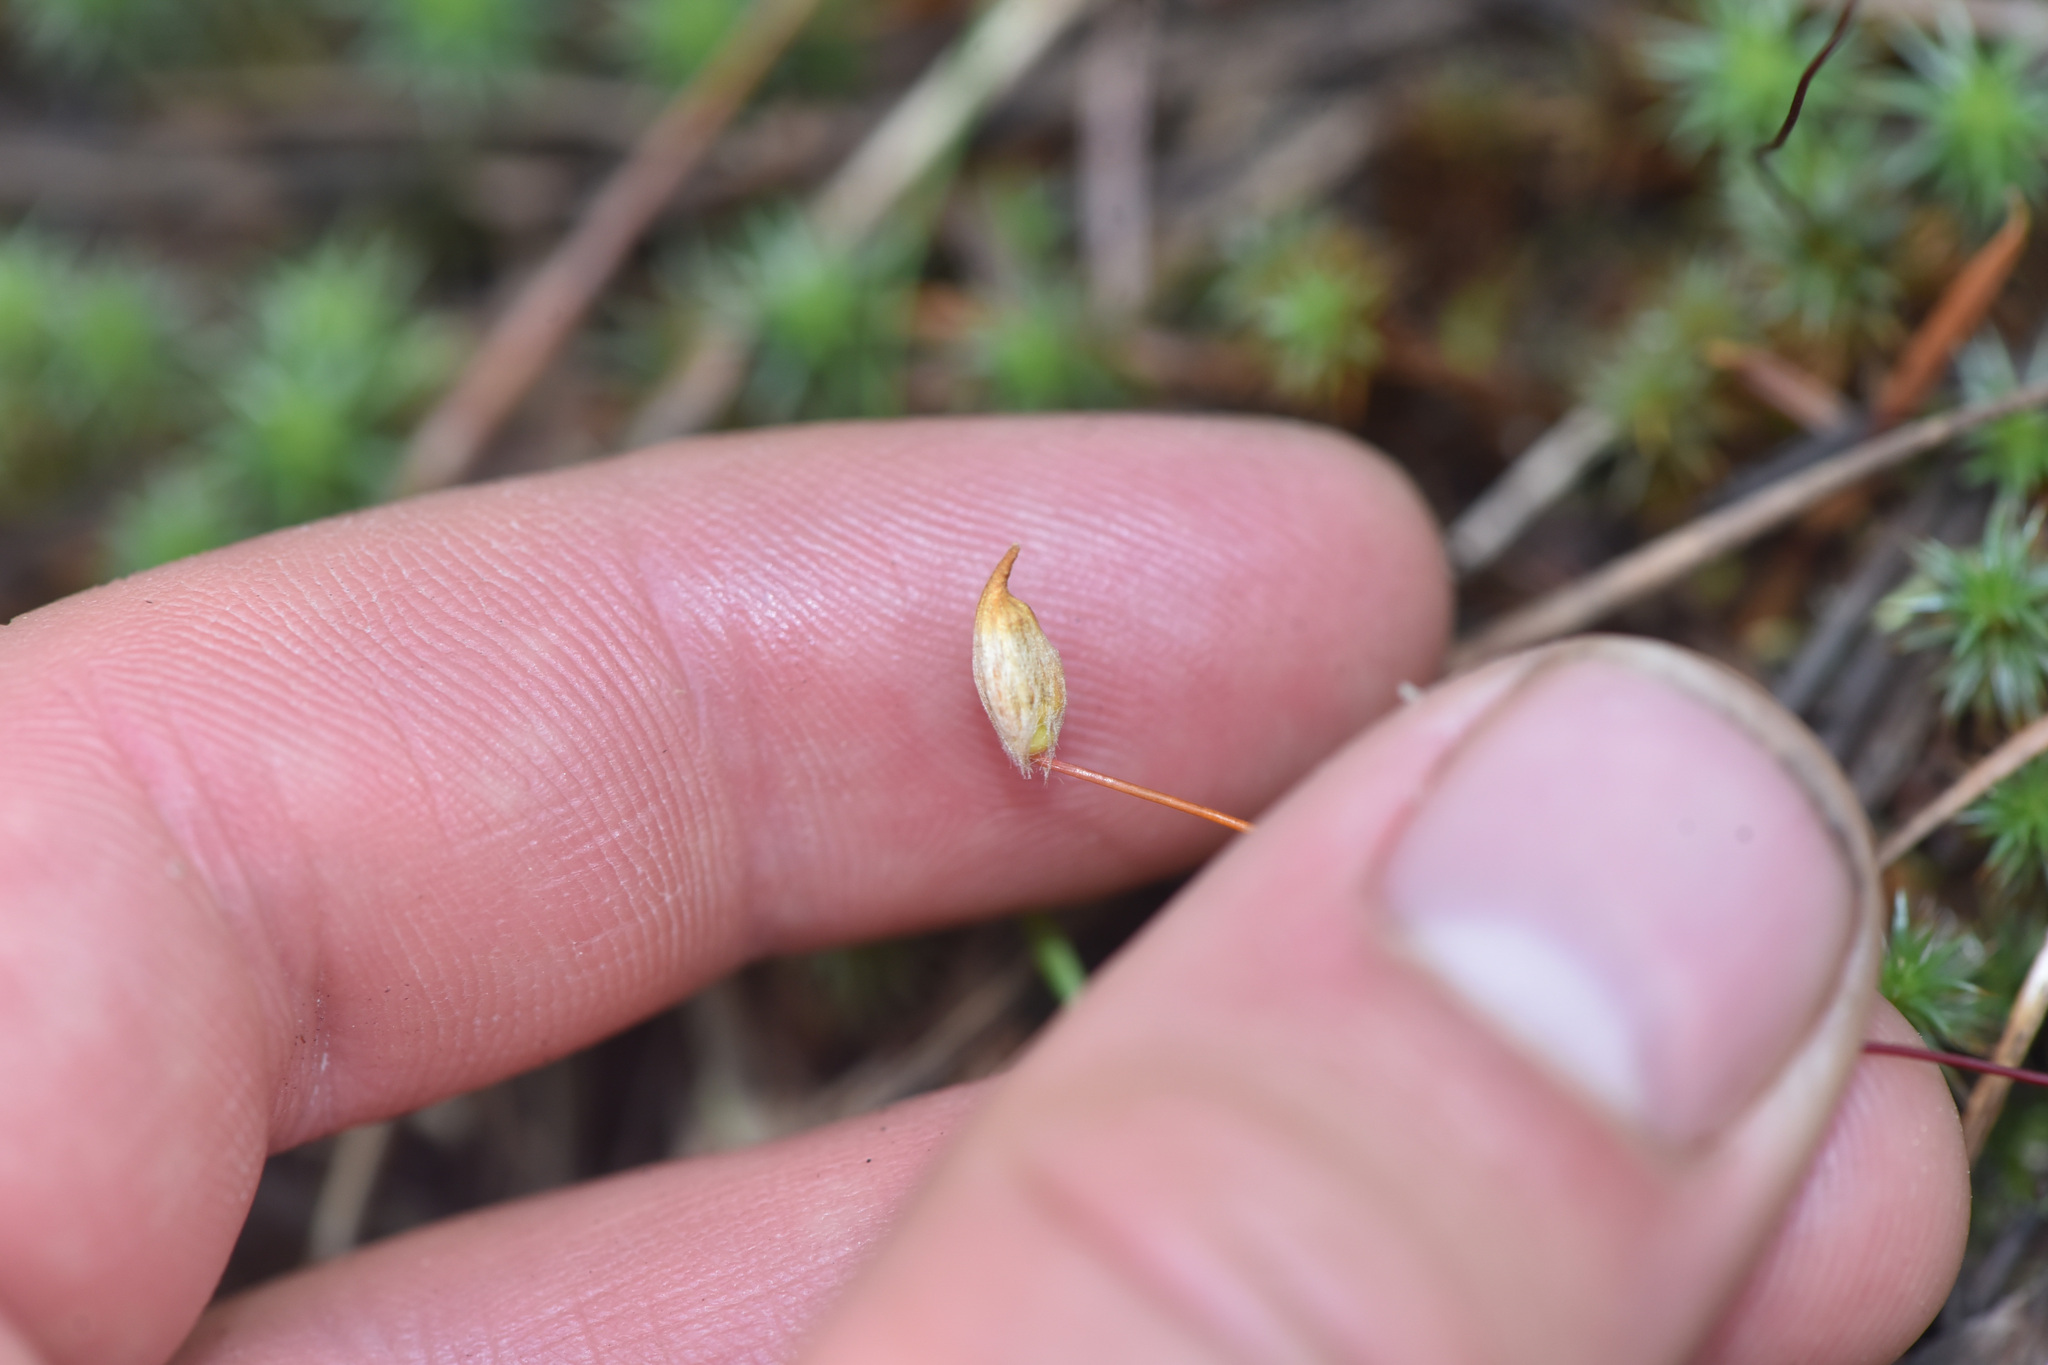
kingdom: Plantae
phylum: Bryophyta
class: Polytrichopsida
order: Polytrichales
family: Polytrichaceae
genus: Polytrichum
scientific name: Polytrichum juniperinum
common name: Juniper haircap moss
